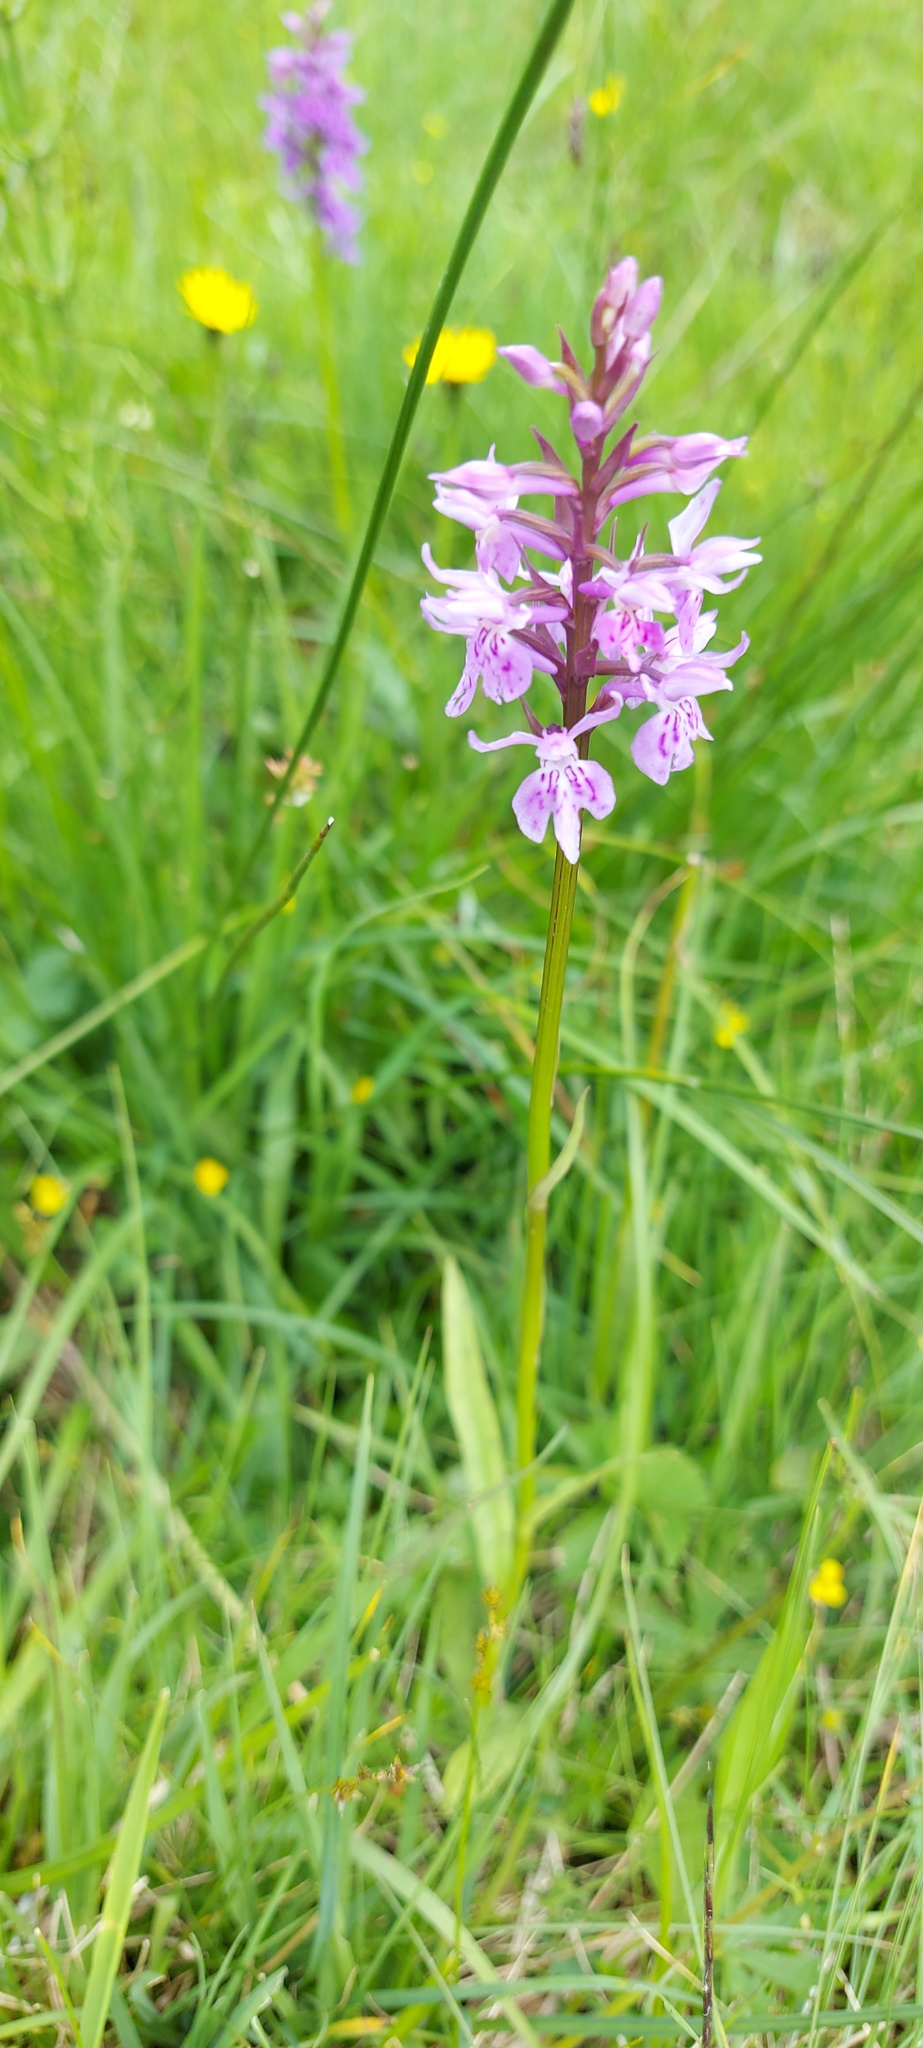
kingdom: Plantae
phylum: Tracheophyta
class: Liliopsida
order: Asparagales
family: Orchidaceae
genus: Dactylorhiza
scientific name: Dactylorhiza maculata
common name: Heath spotted-orchid
